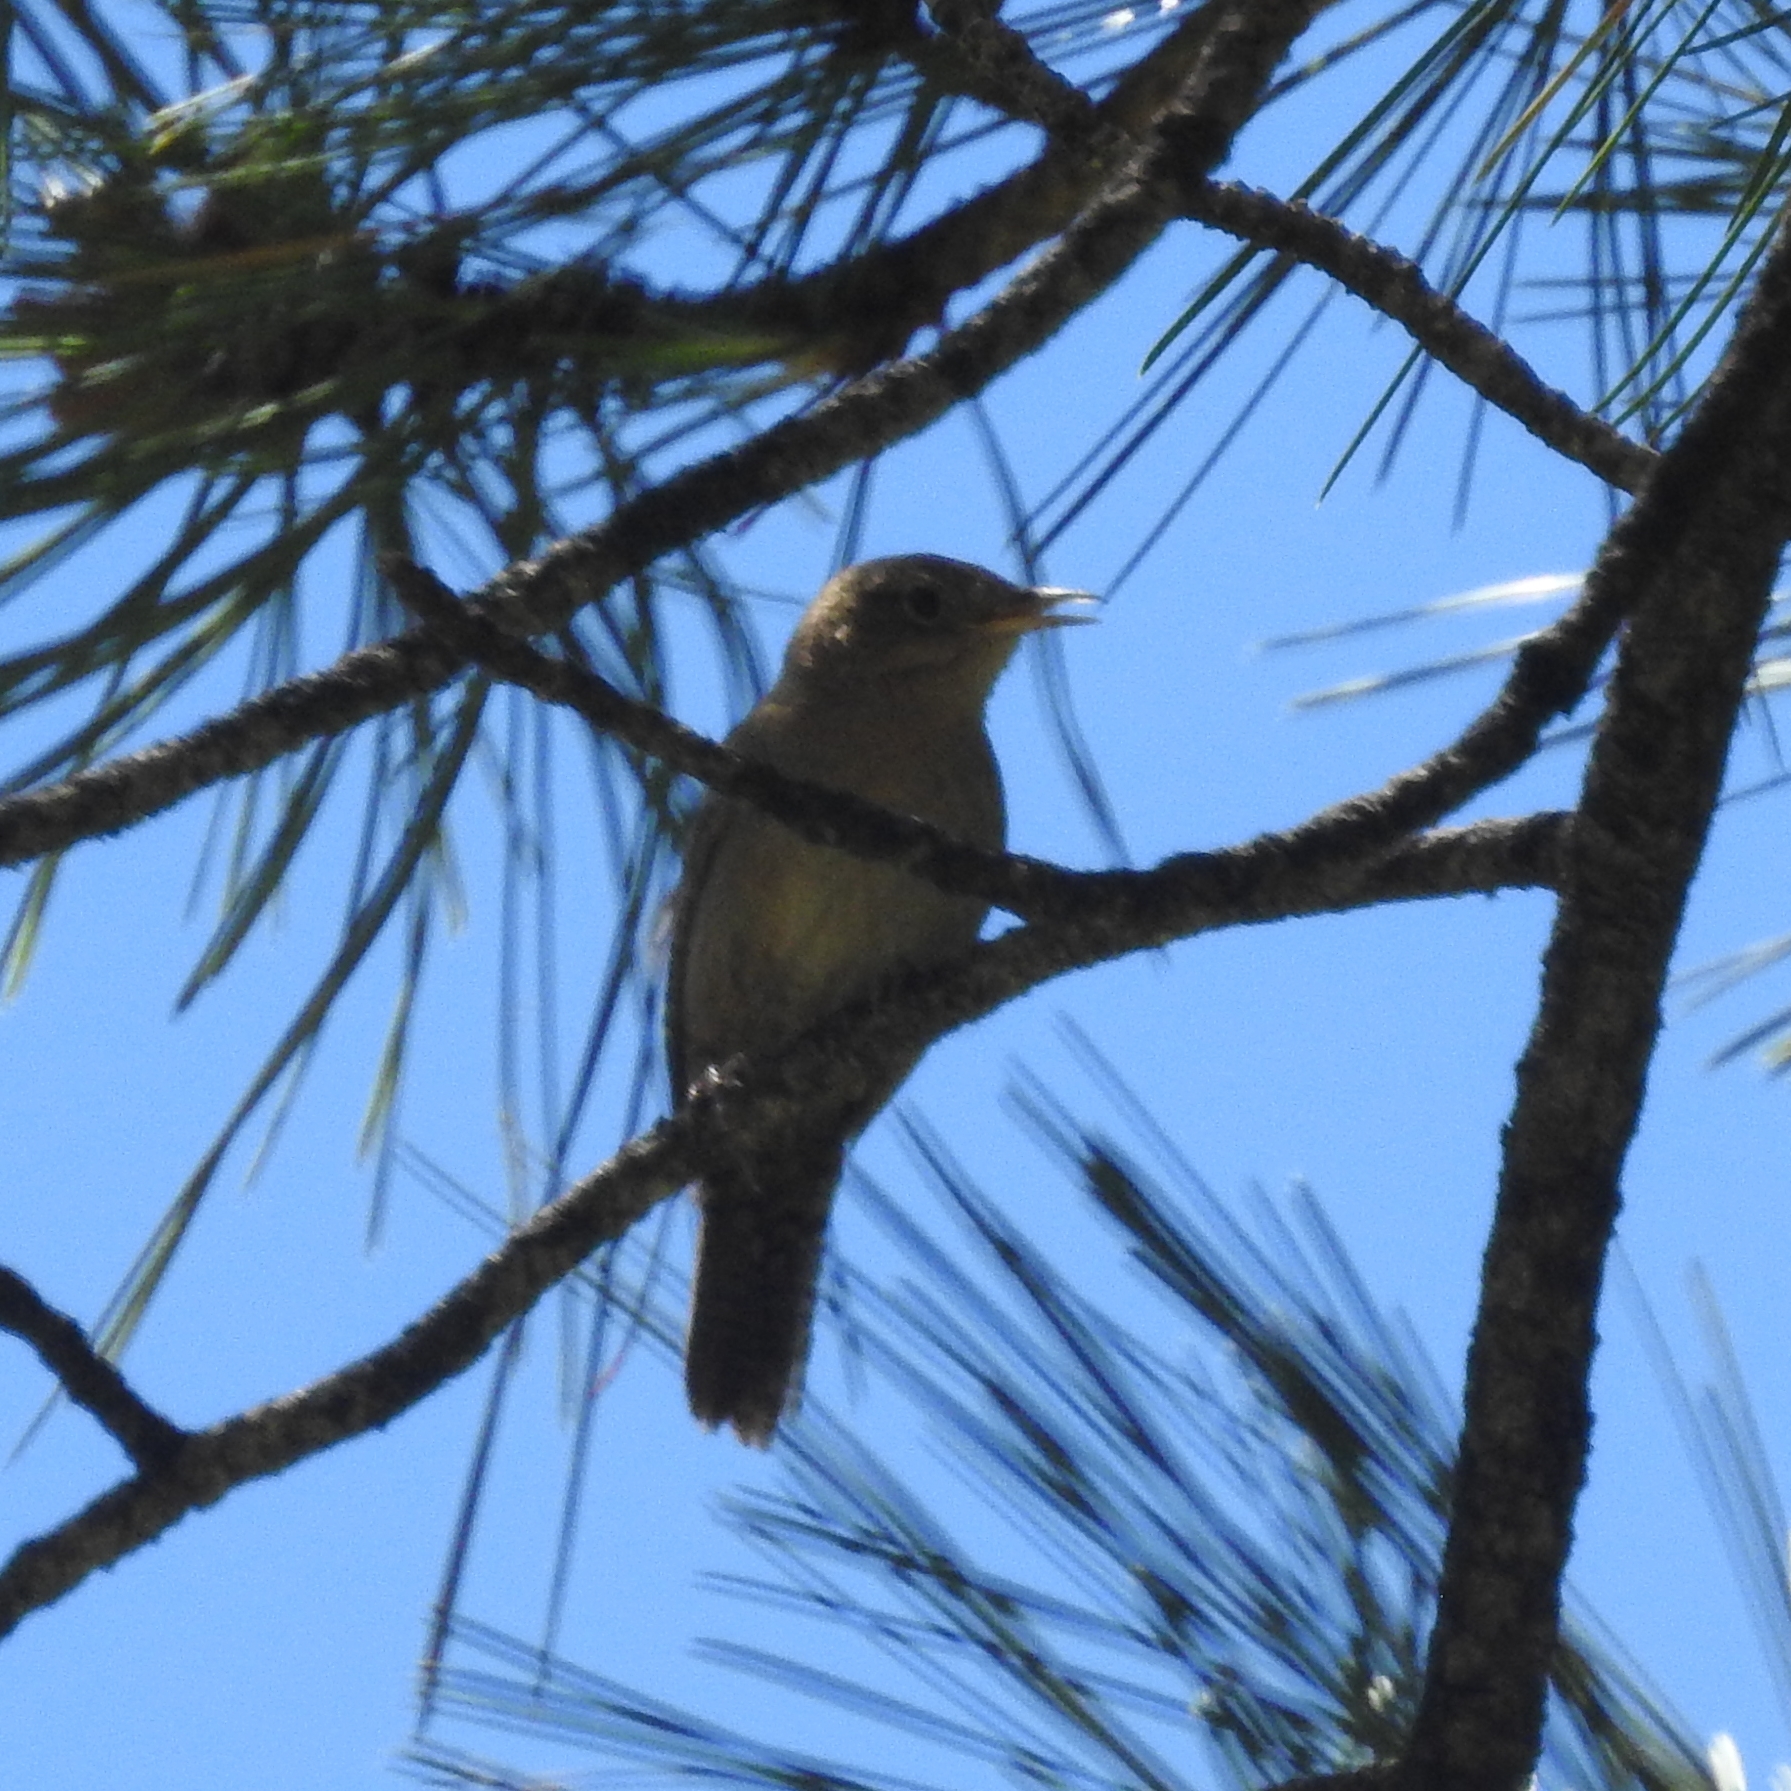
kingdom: Animalia
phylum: Chordata
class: Aves
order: Passeriformes
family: Troglodytidae
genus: Troglodytes
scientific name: Troglodytes aedon
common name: House wren
